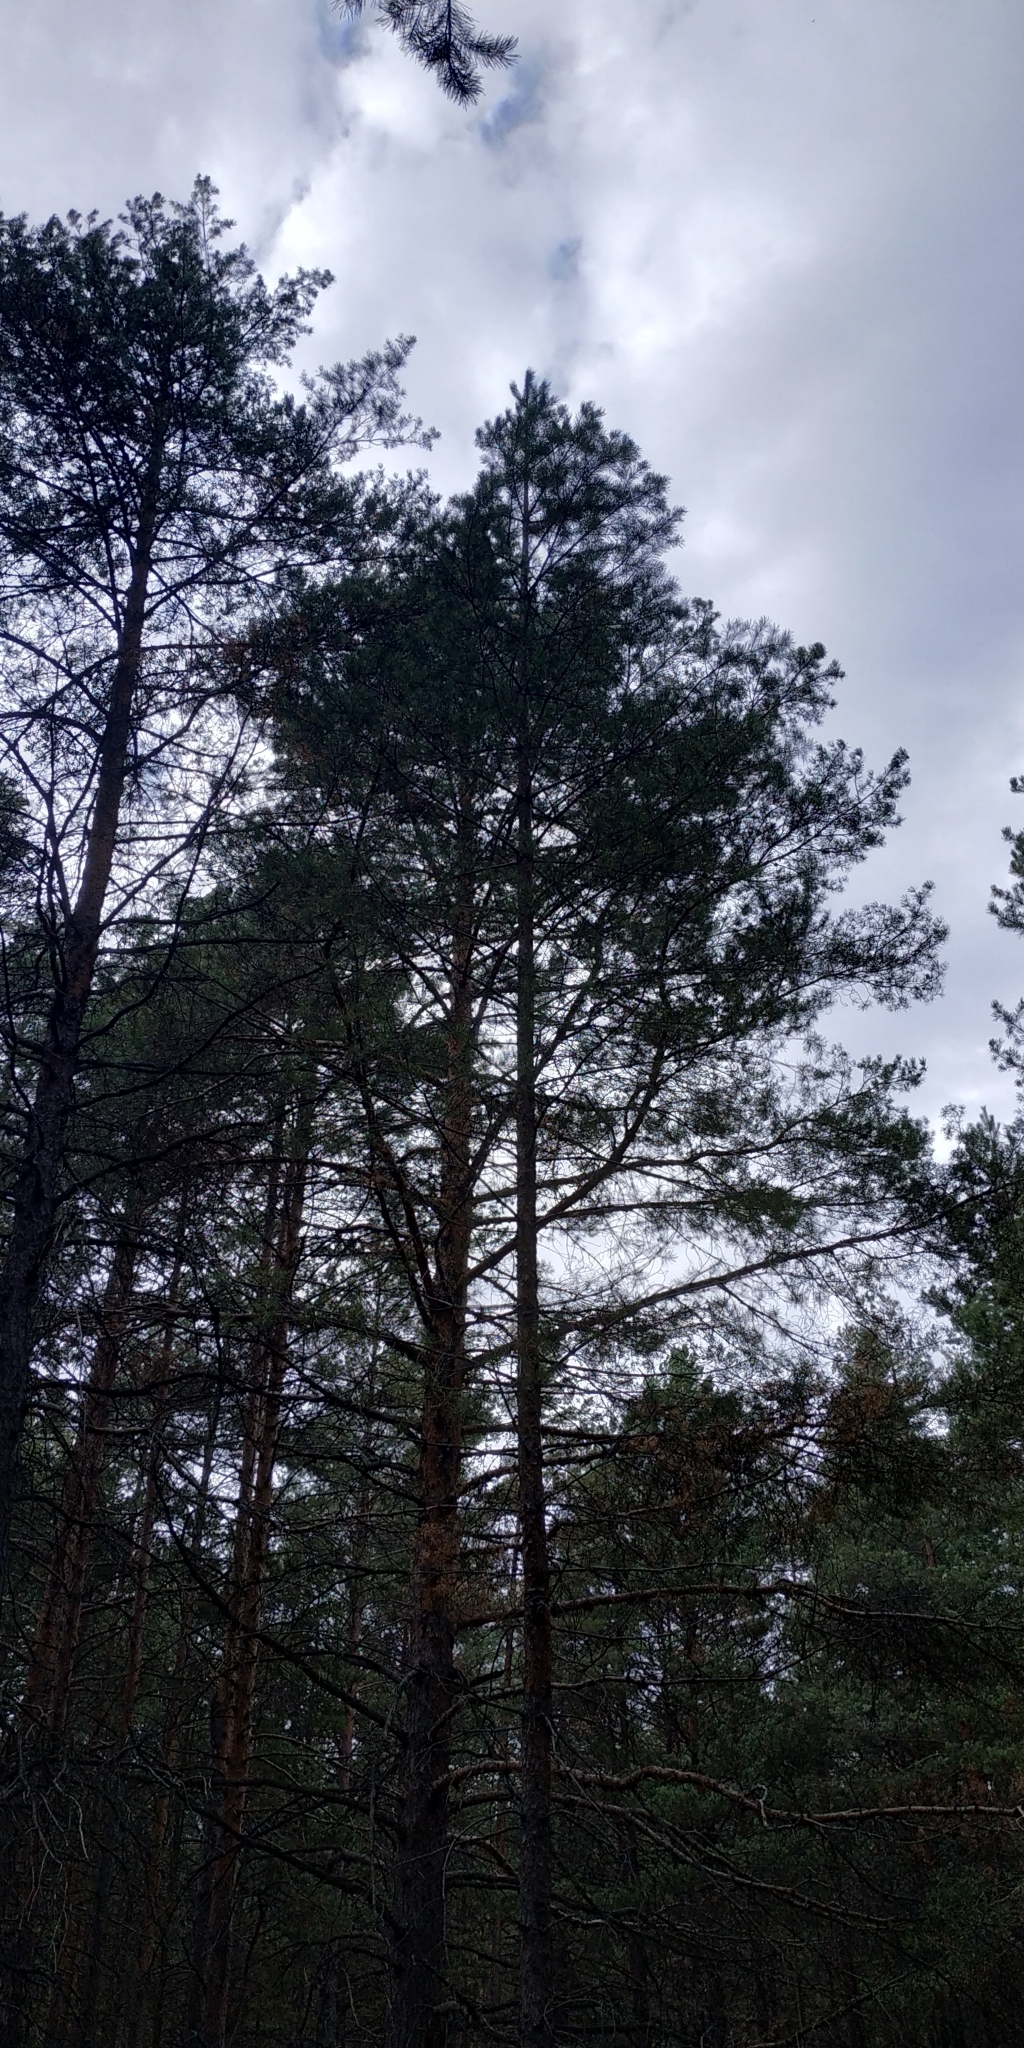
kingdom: Plantae
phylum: Tracheophyta
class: Pinopsida
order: Pinales
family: Pinaceae
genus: Pinus
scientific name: Pinus sylvestris
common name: Scots pine
